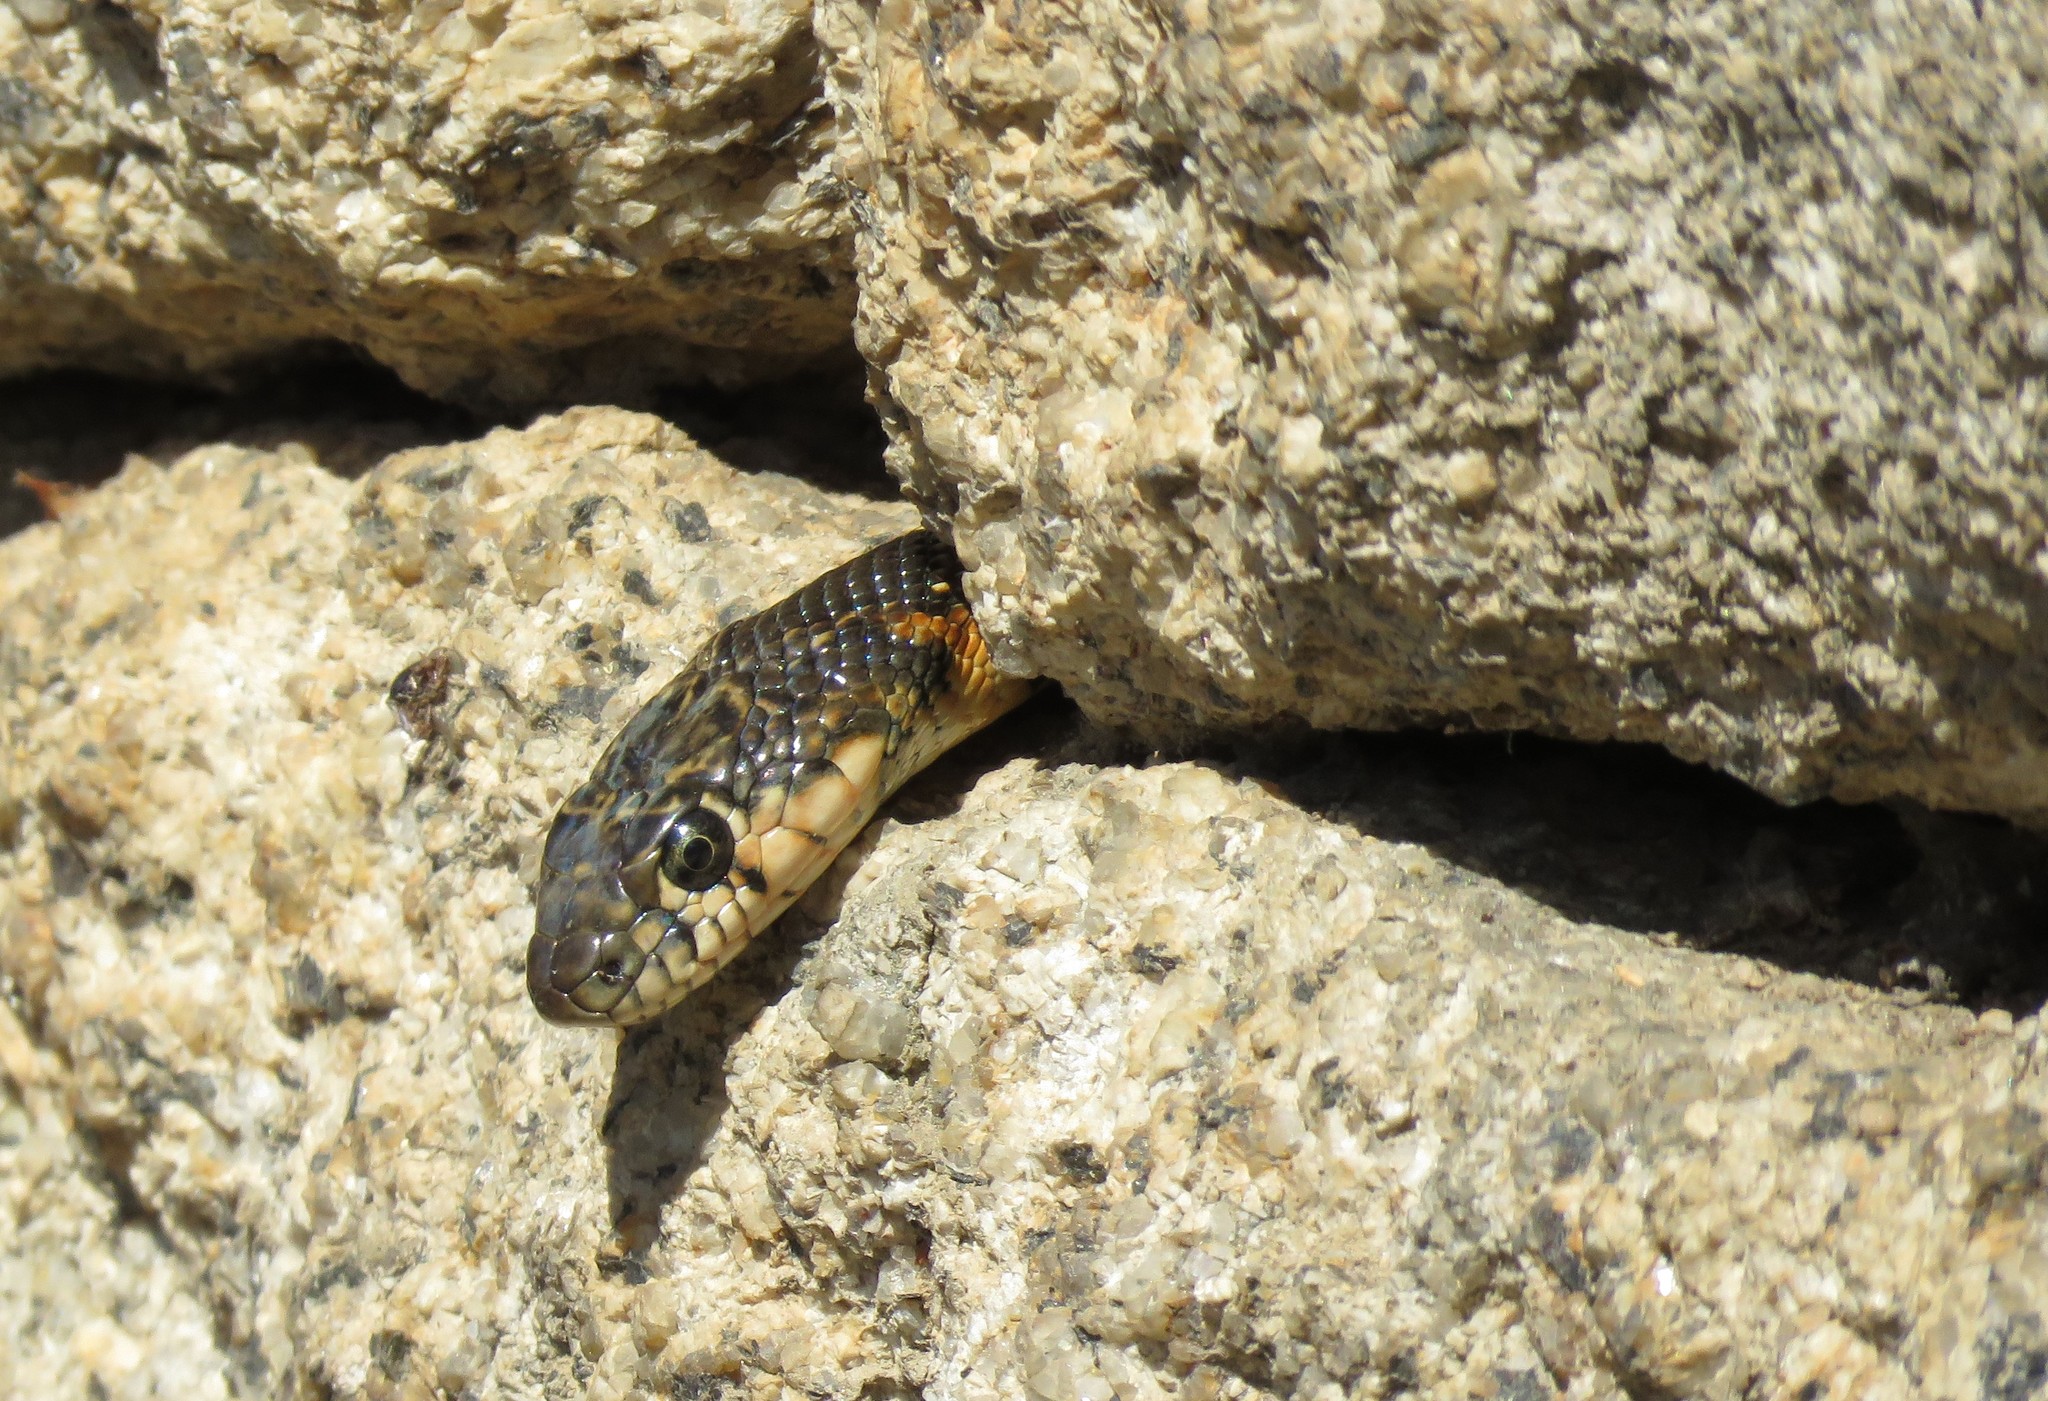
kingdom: Animalia
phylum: Chordata
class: Squamata
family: Colubridae
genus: Hemorrhois
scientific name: Hemorrhois hippocrepis
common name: Horseshoe whip snake
